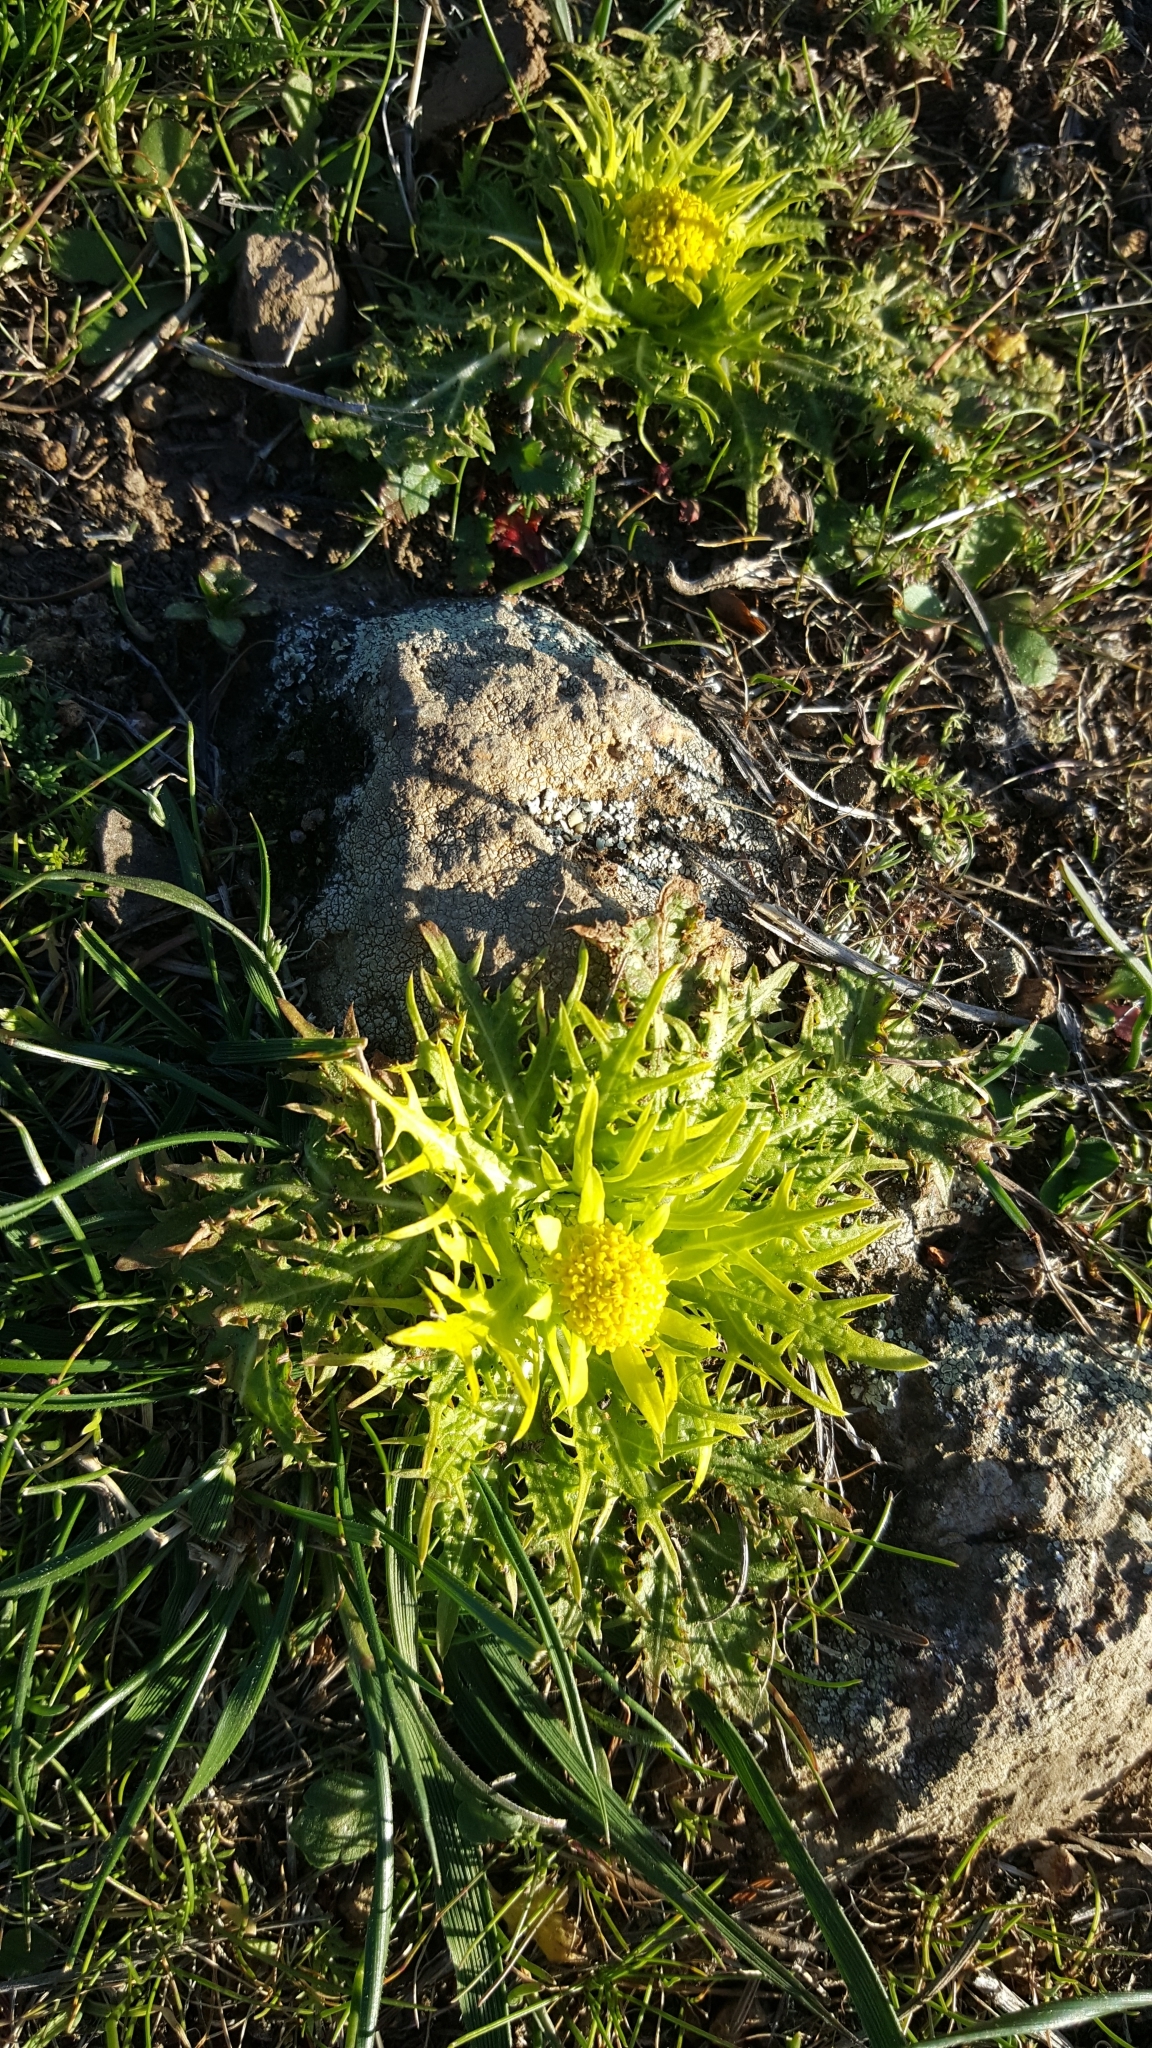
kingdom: Plantae
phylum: Tracheophyta
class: Magnoliopsida
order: Apiales
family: Apiaceae
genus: Sanicula
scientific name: Sanicula arctopoides
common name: Footsteps-of-spring
